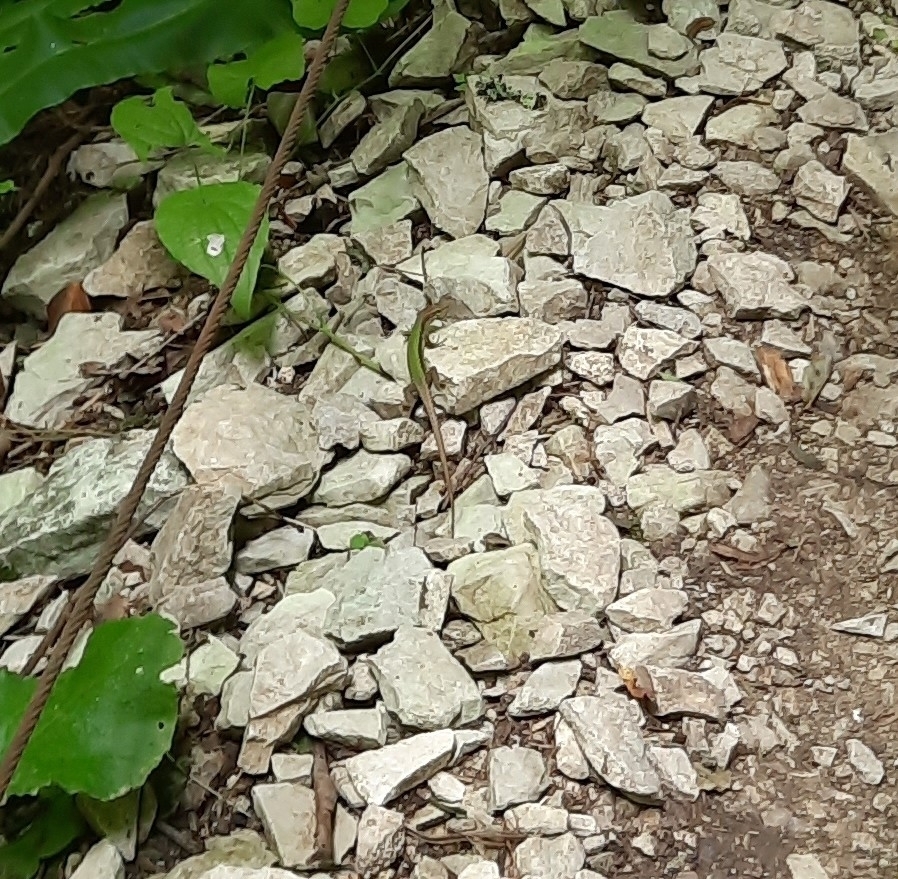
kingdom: Animalia
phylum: Chordata
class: Squamata
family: Lacertidae
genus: Darevskia
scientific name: Darevskia brauneri
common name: Brauner's rock lizard
